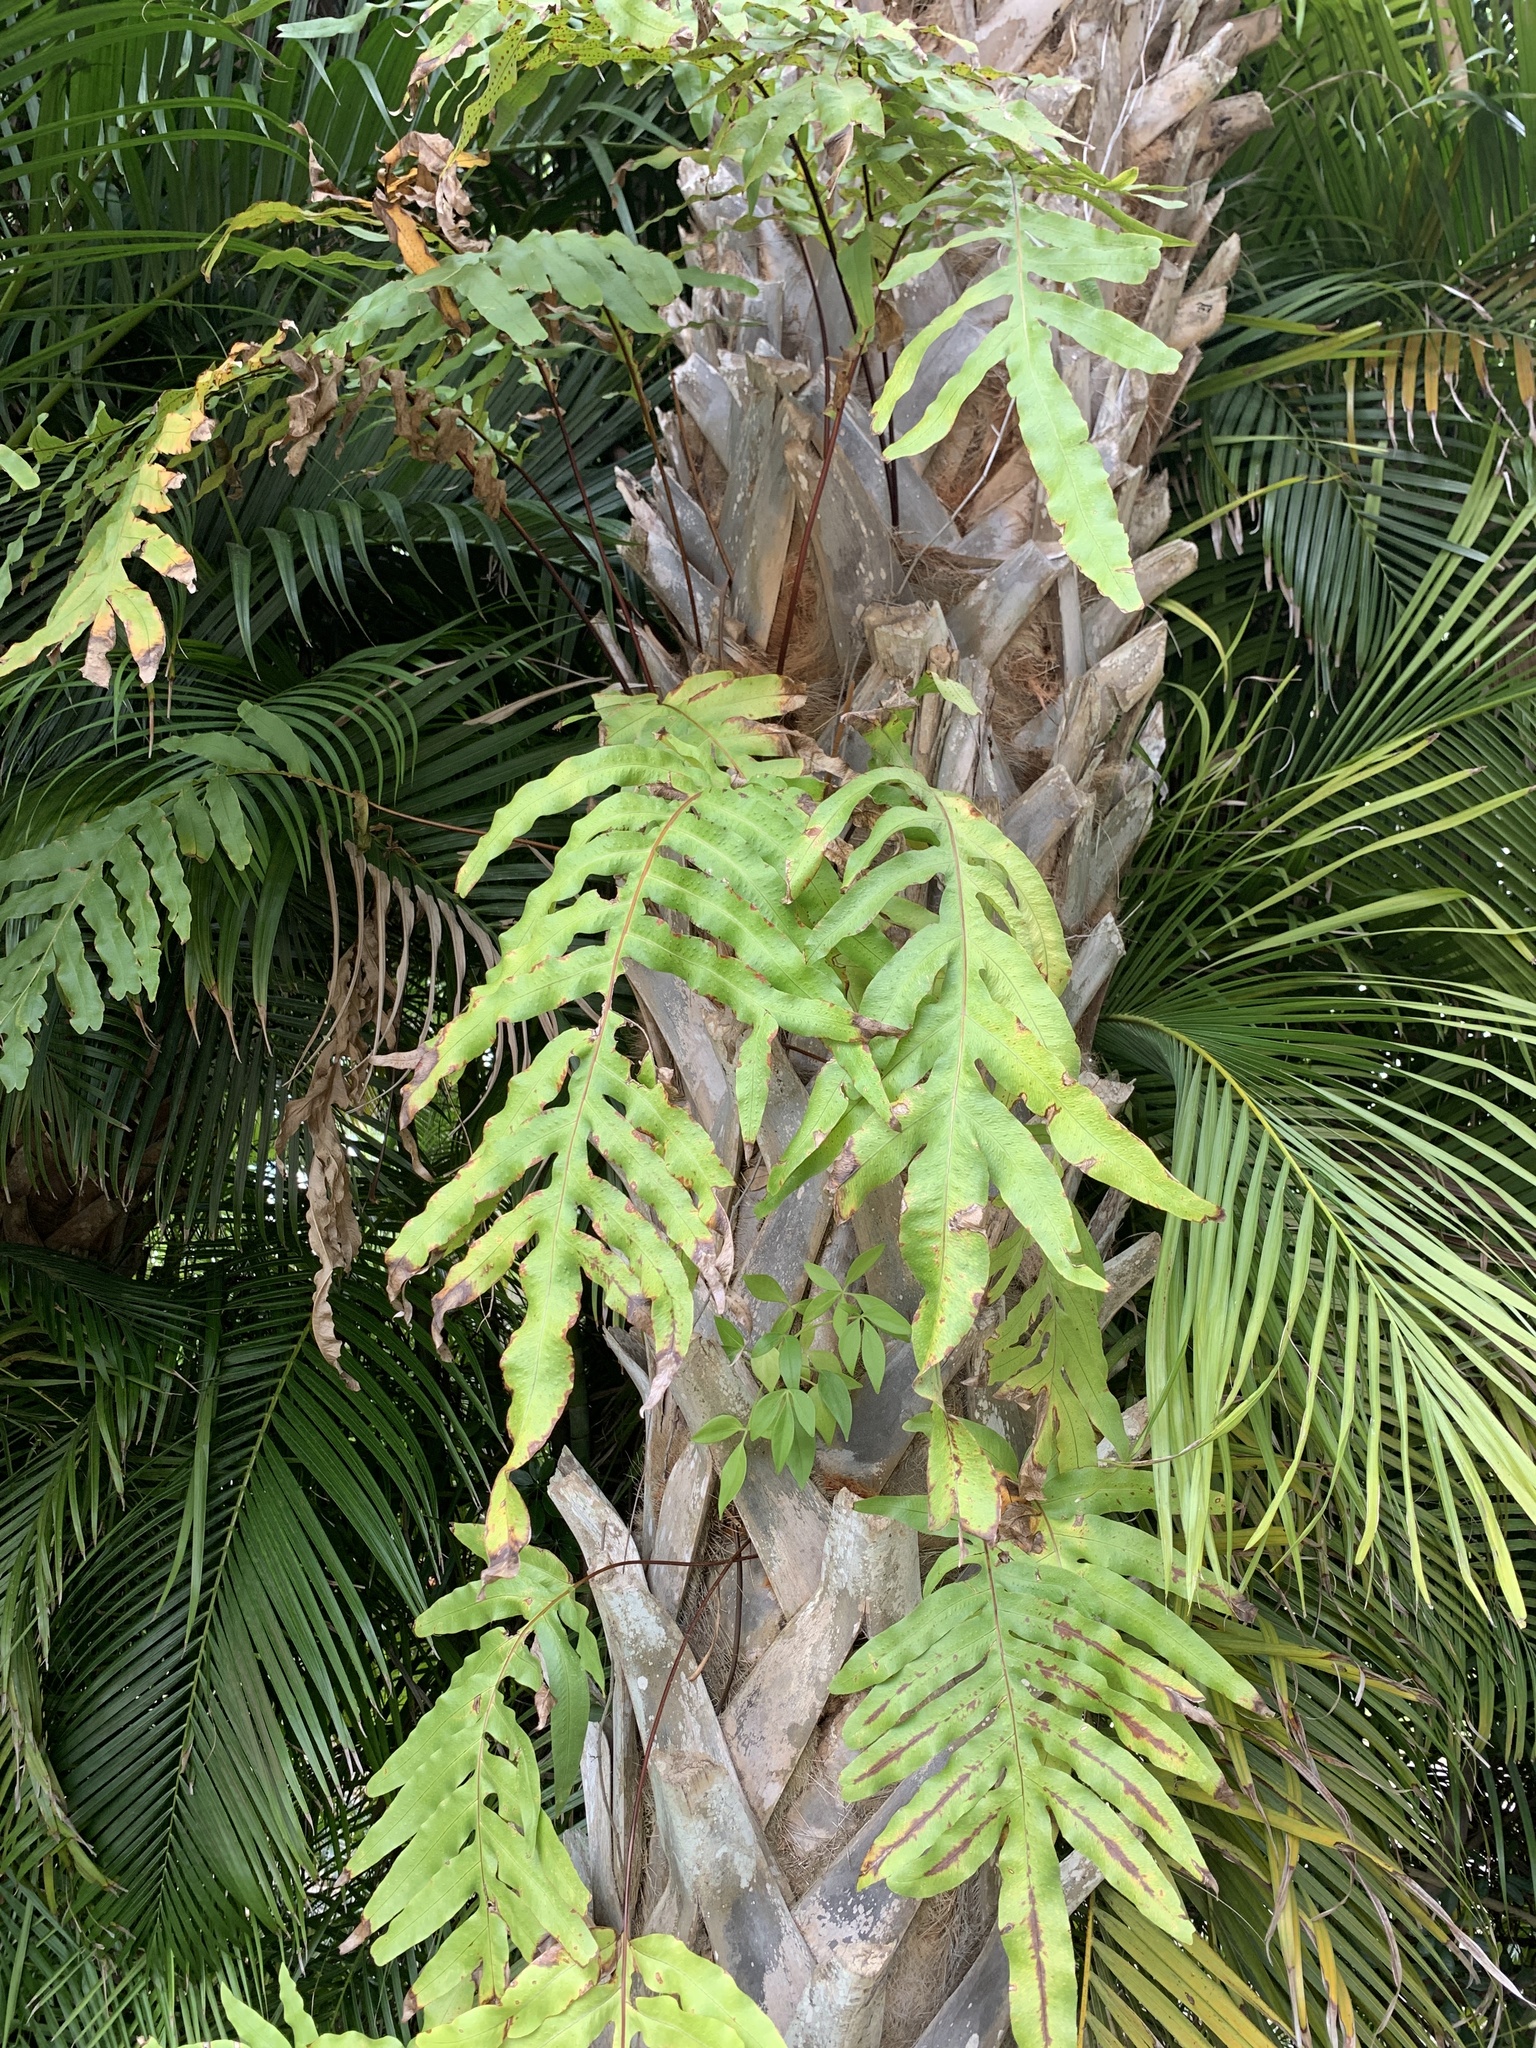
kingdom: Plantae
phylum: Tracheophyta
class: Polypodiopsida
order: Polypodiales
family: Polypodiaceae
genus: Phlebodium
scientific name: Phlebodium aureum
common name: Gold-foot fern
